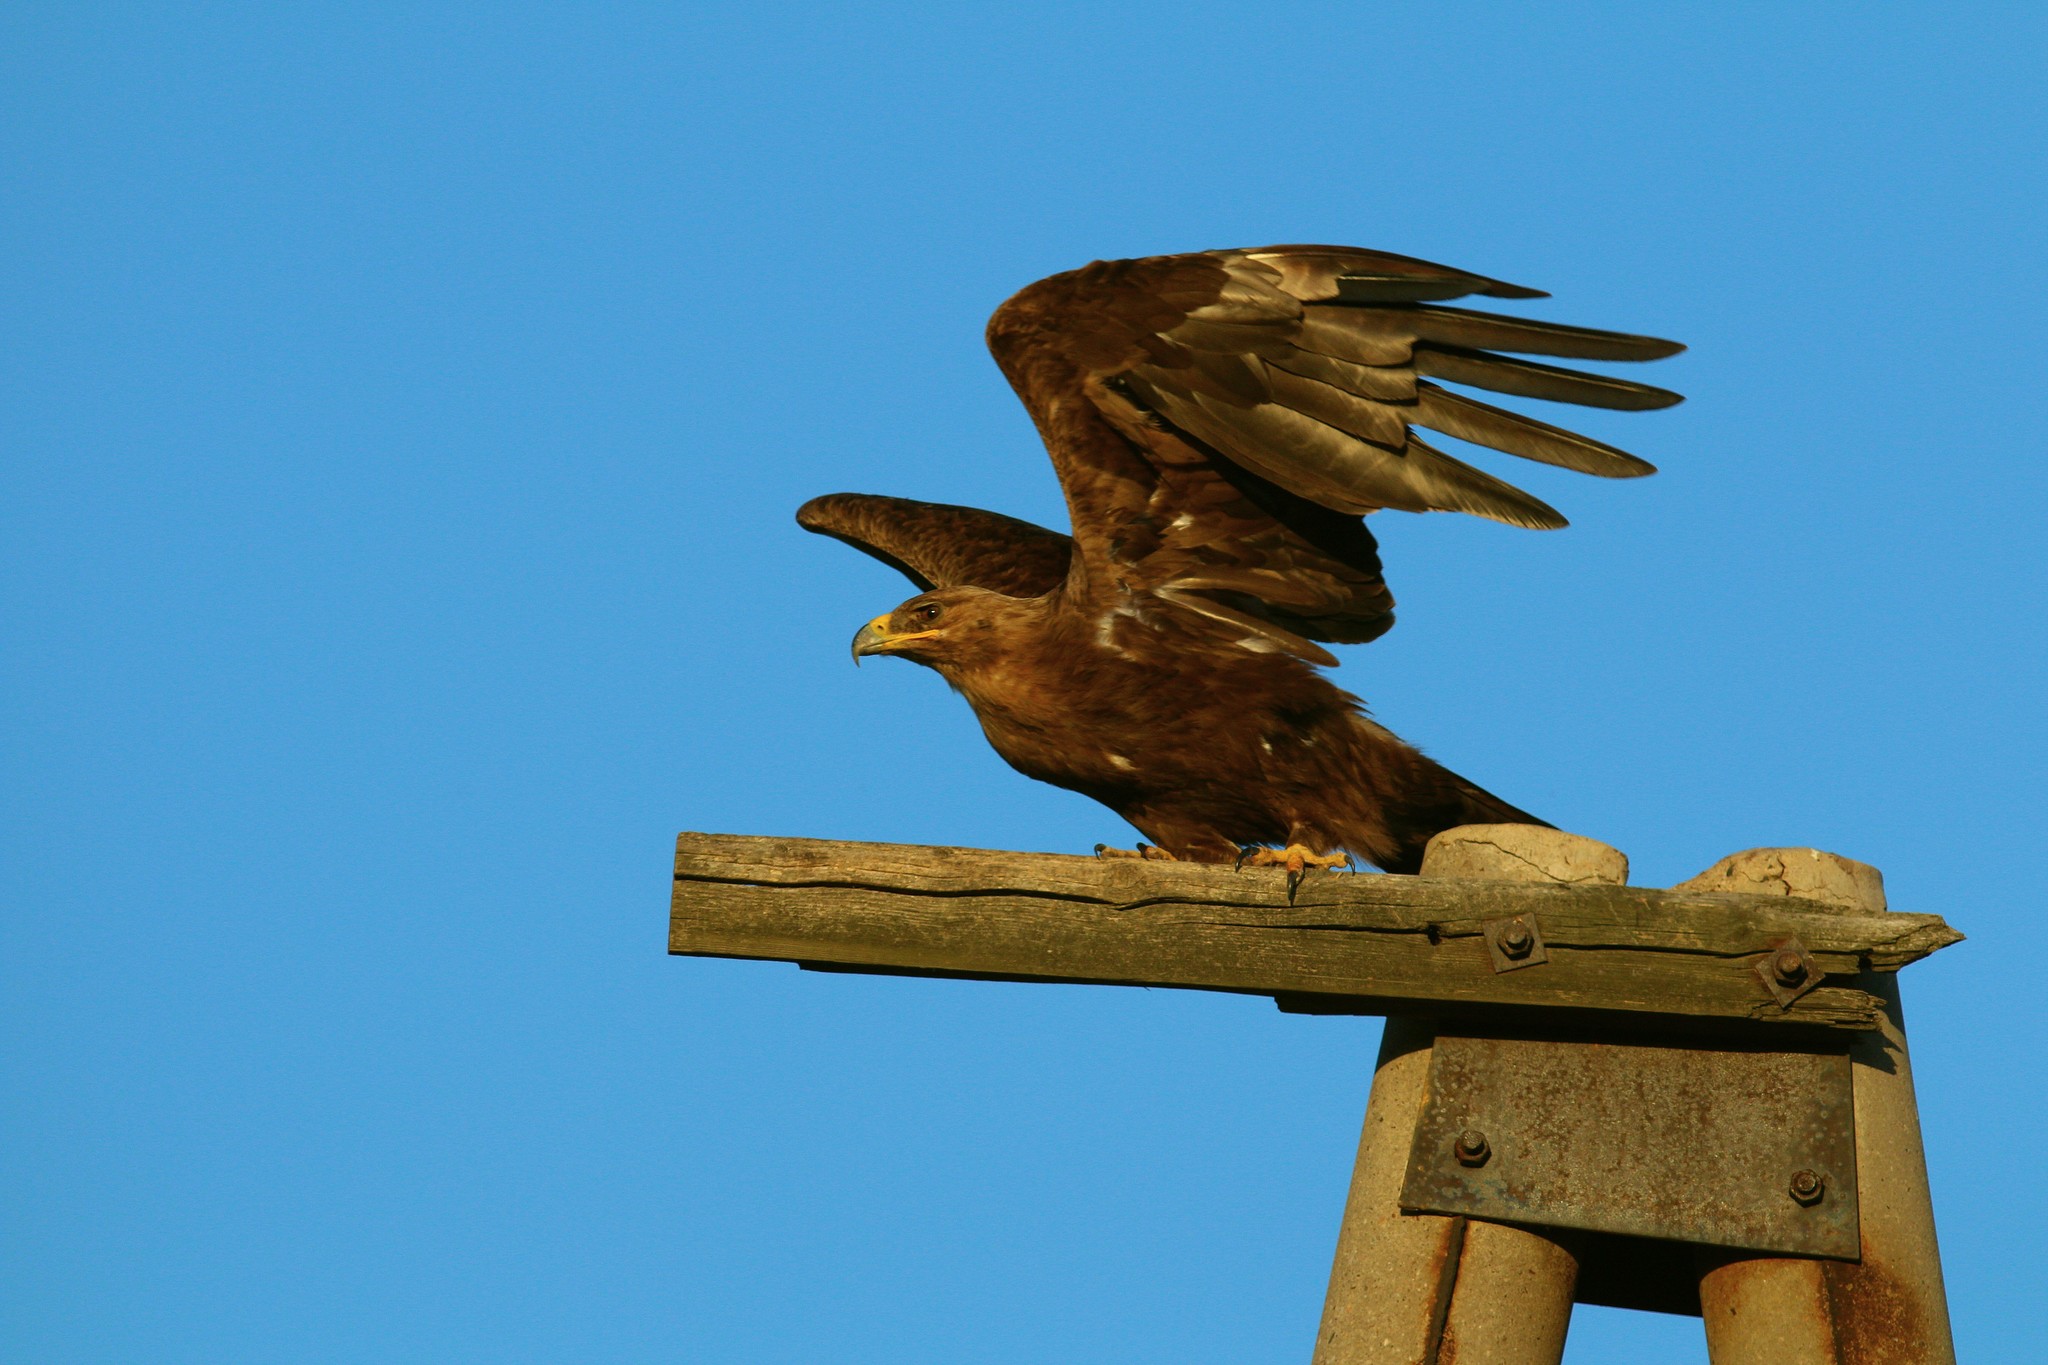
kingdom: Animalia
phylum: Chordata
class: Aves
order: Accipitriformes
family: Accipitridae
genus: Aquila
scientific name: Aquila nipalensis
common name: Steppe eagle
